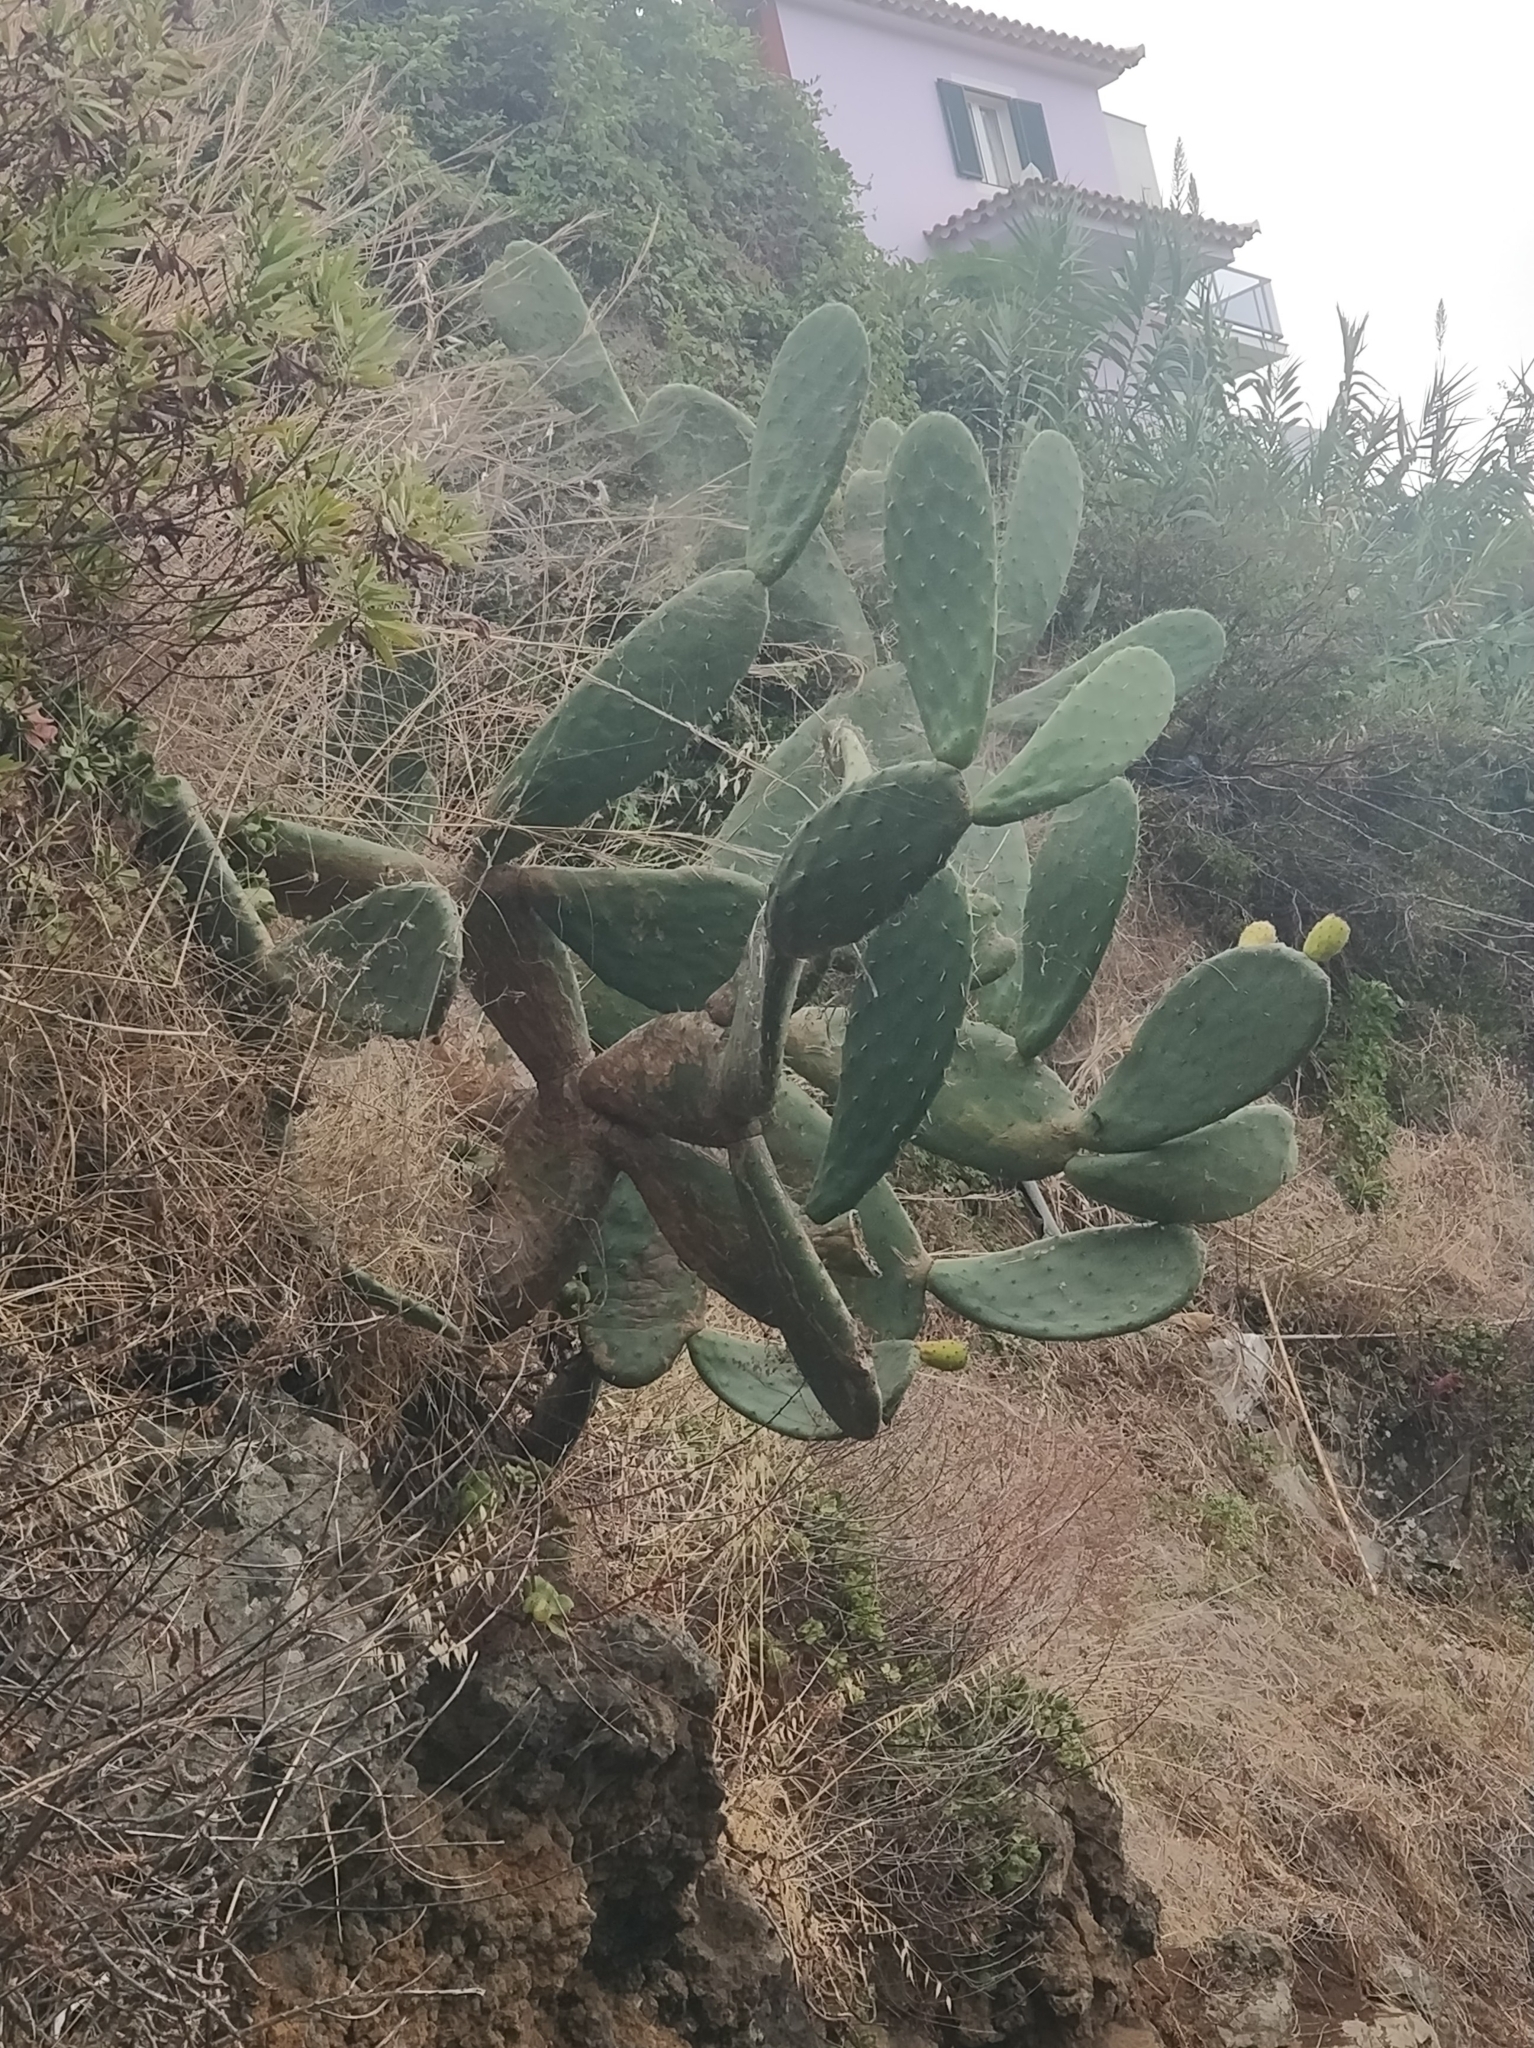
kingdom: Plantae
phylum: Tracheophyta
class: Magnoliopsida
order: Caryophyllales
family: Cactaceae
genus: Opuntia
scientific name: Opuntia ficus-indica
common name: Barbary fig
